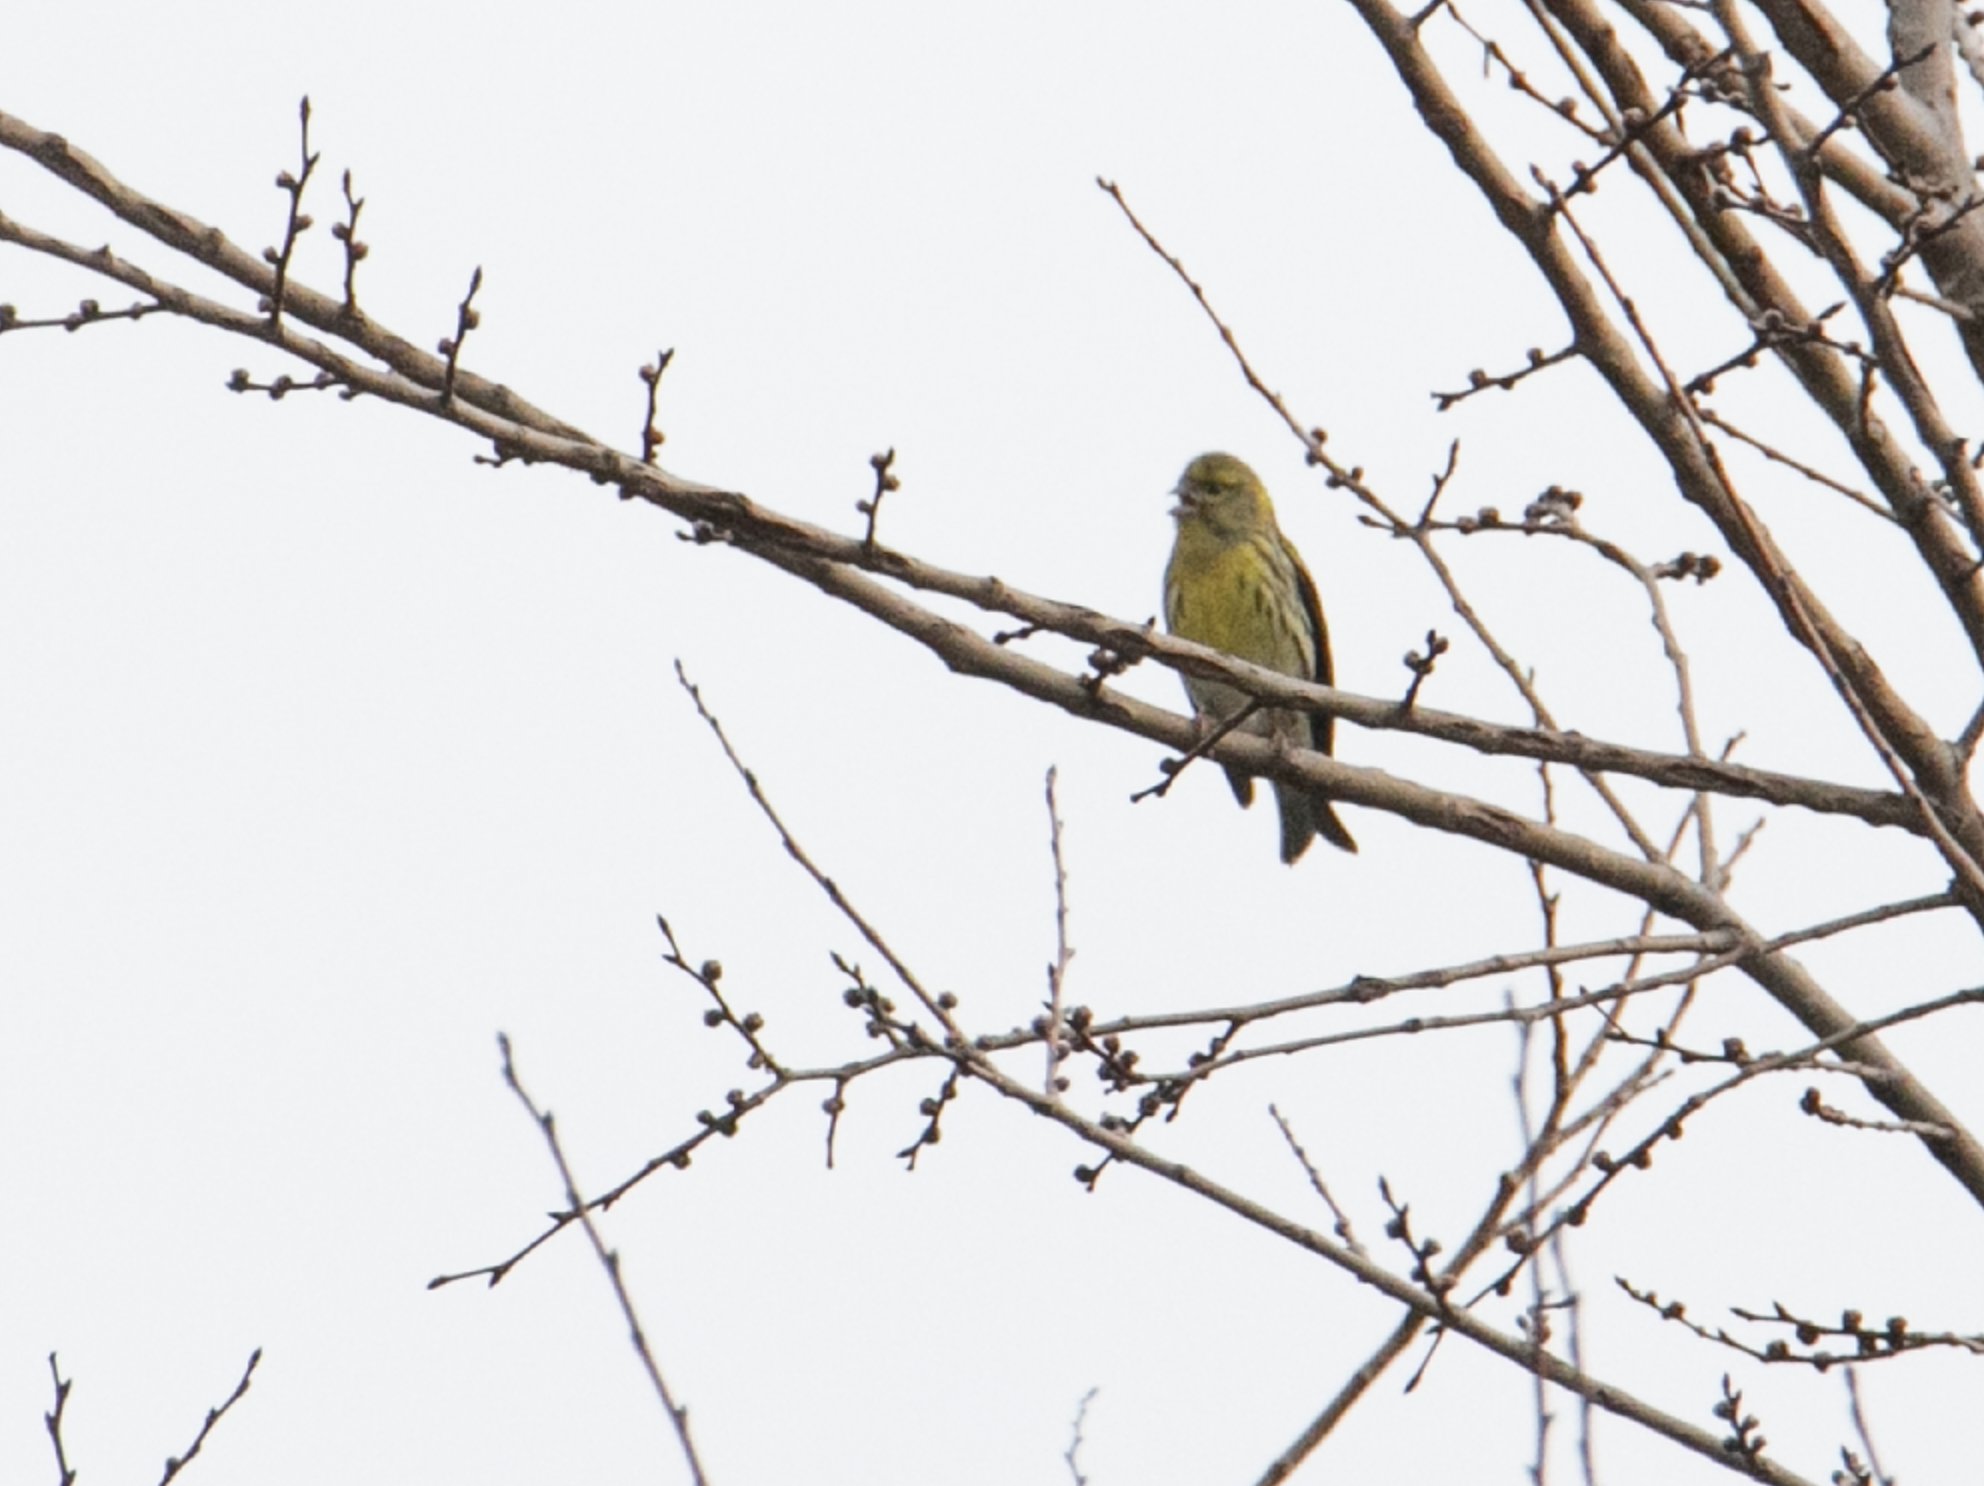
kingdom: Animalia
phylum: Chordata
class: Aves
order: Passeriformes
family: Fringillidae
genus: Serinus
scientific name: Serinus serinus
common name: European serin
